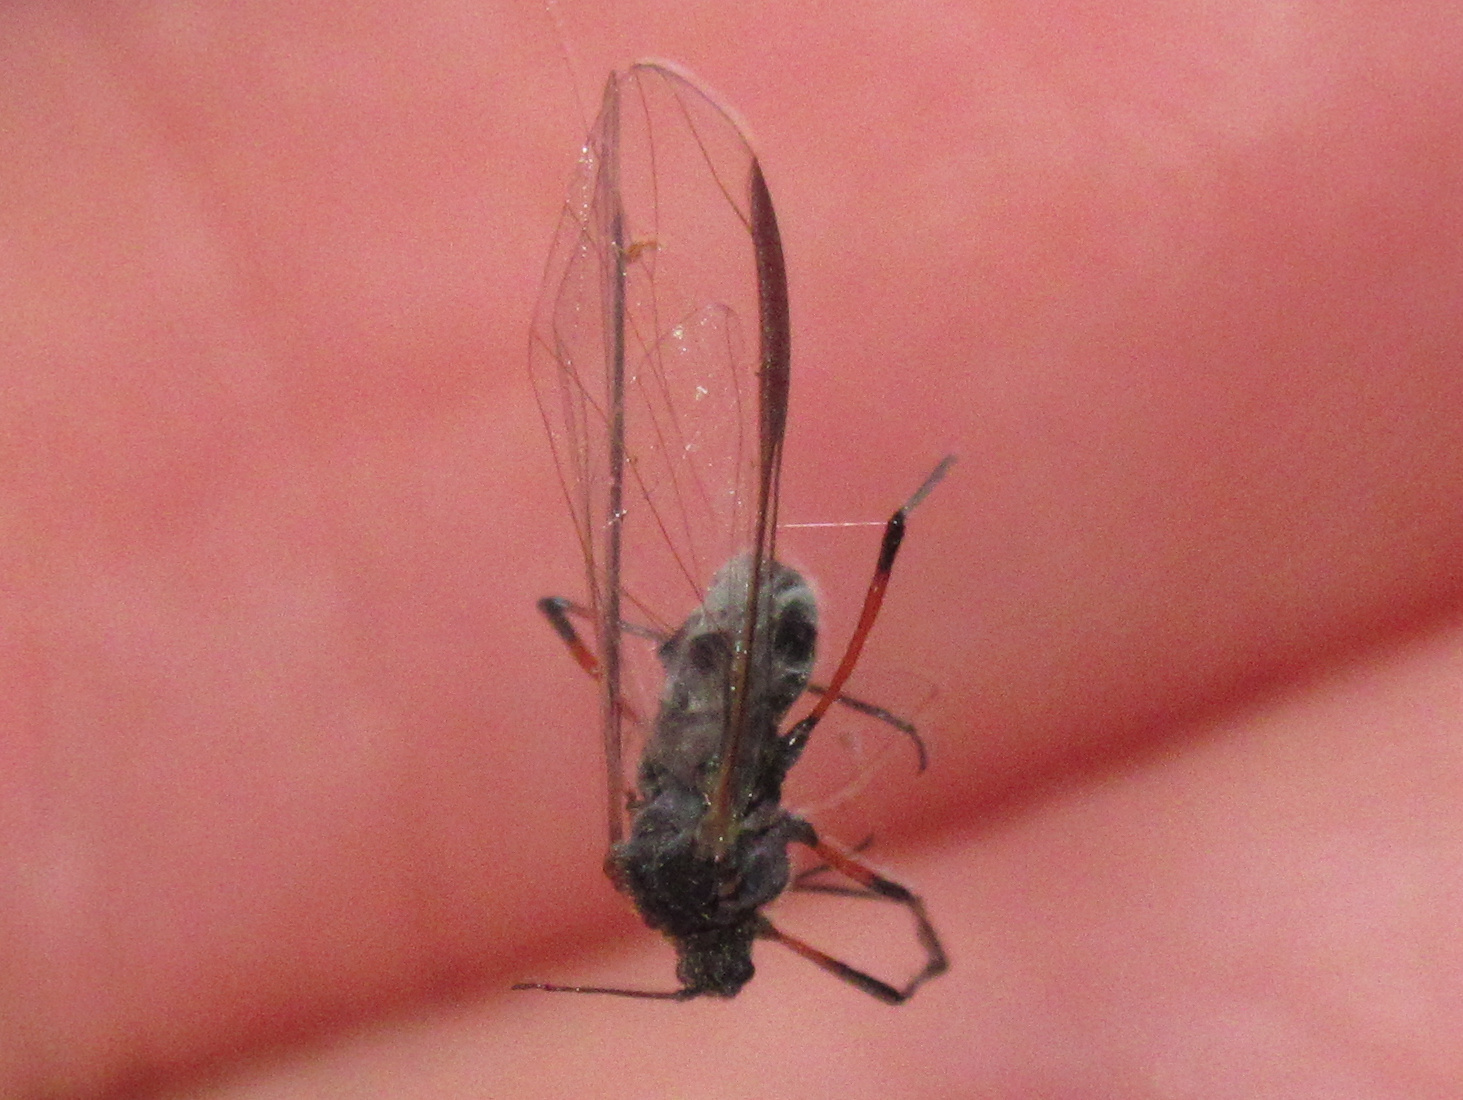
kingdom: Animalia
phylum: Arthropoda
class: Insecta
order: Hemiptera
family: Aphididae
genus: Tuberolachnus
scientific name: Tuberolachnus salignus
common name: Giant willow aphid
